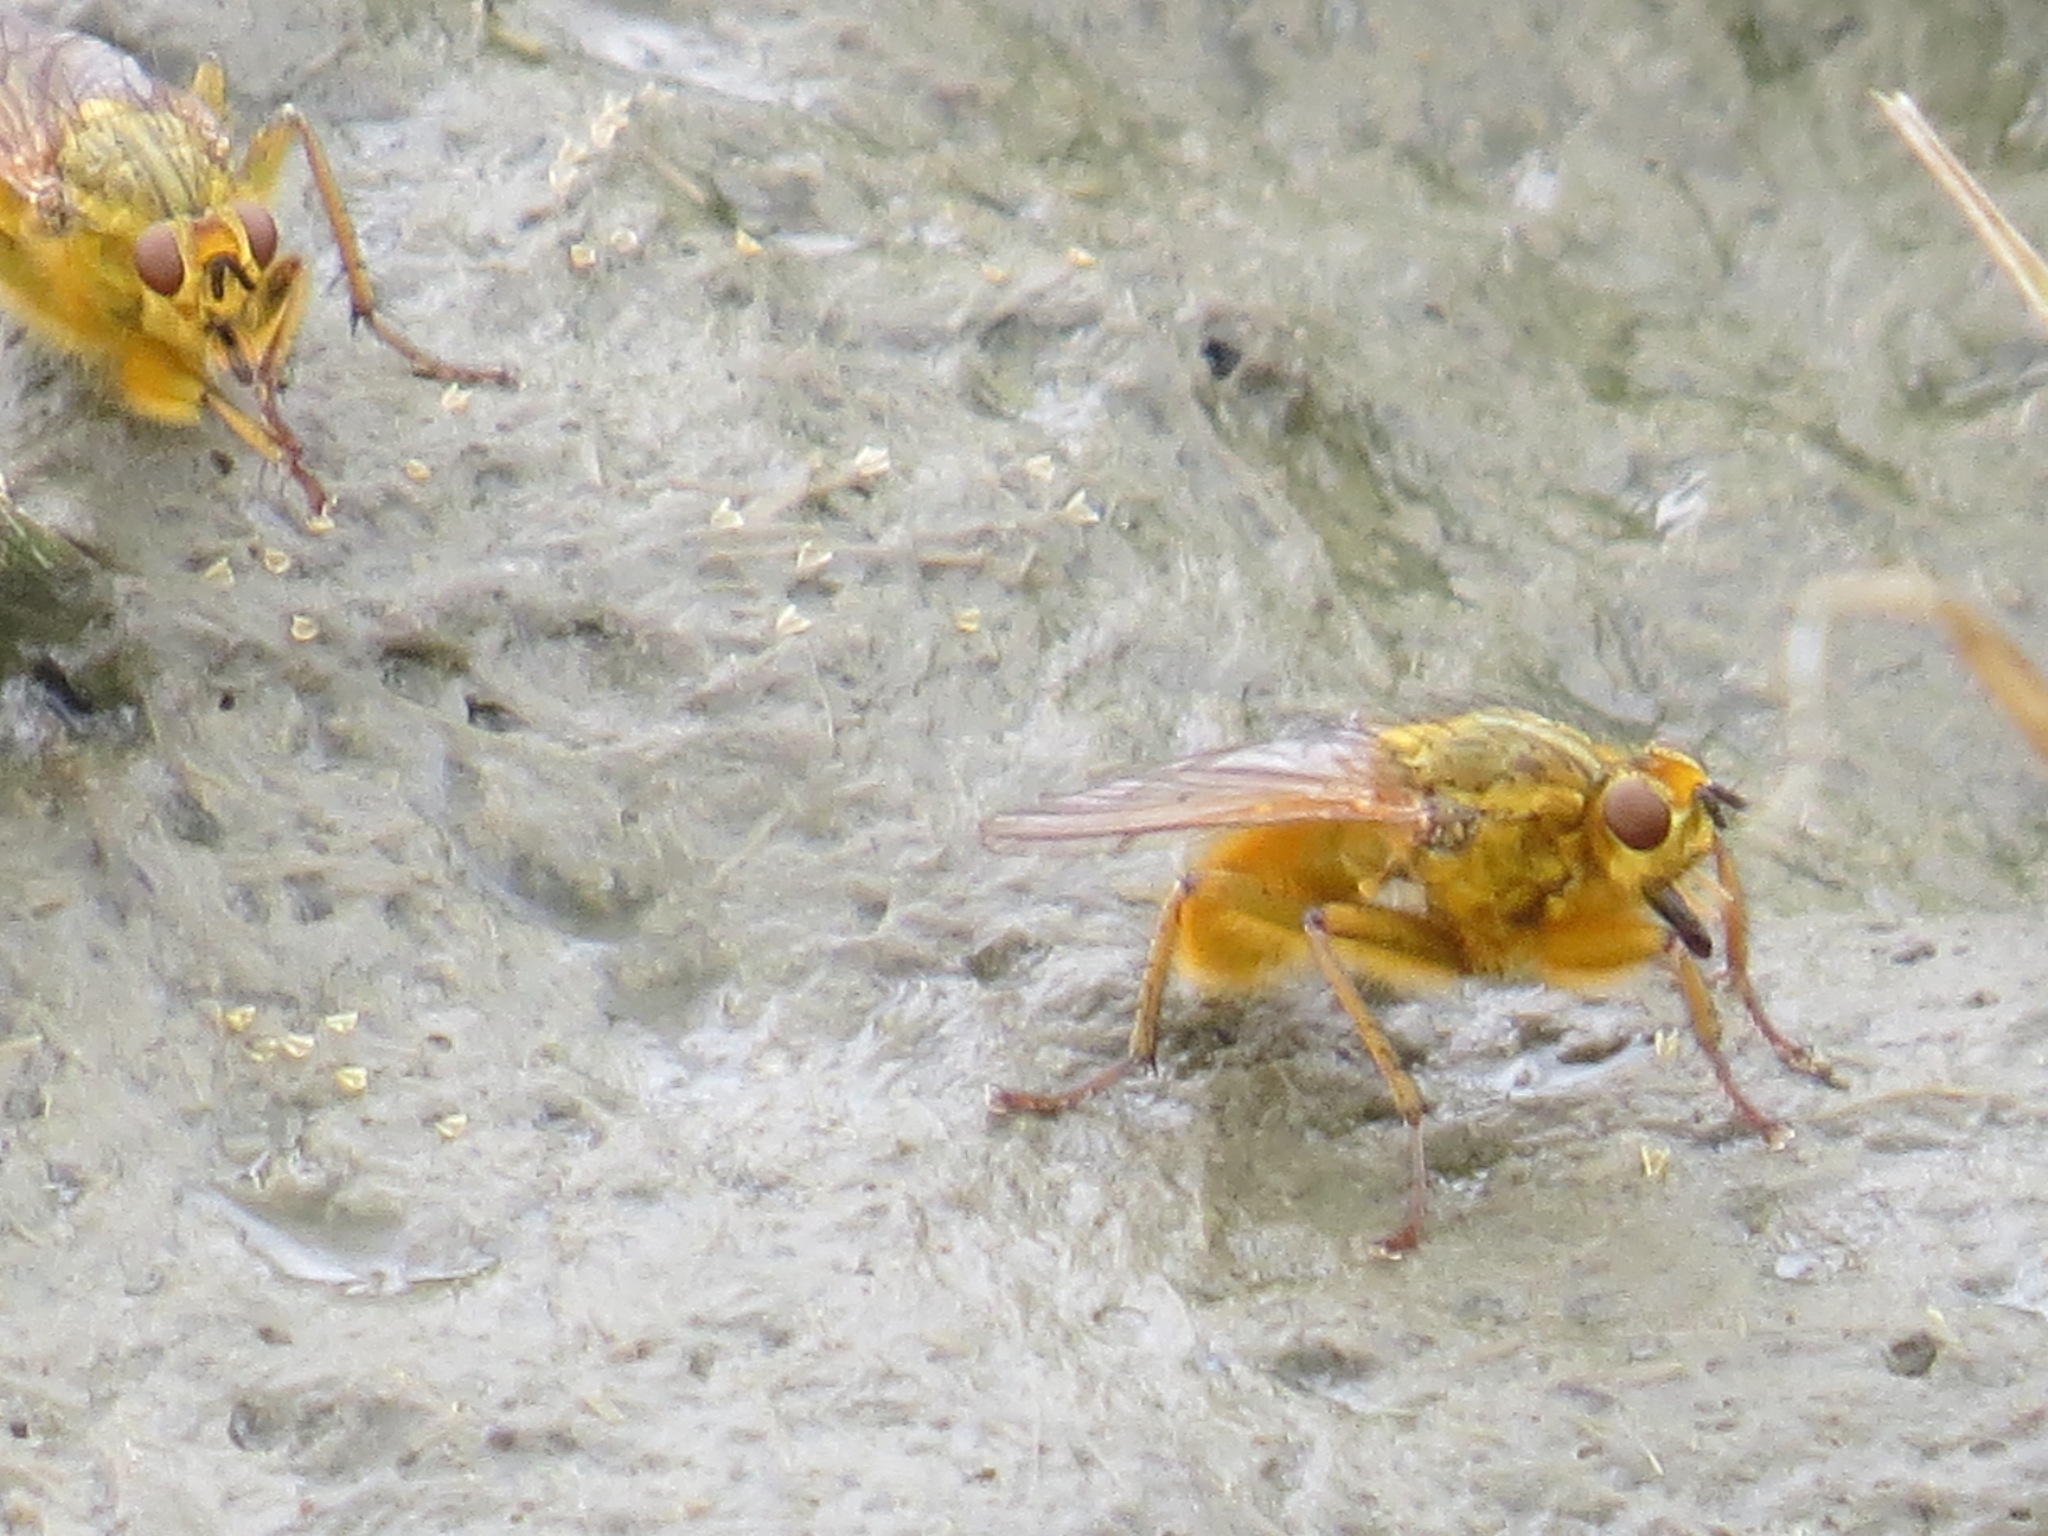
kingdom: Animalia
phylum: Arthropoda
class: Insecta
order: Diptera
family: Scathophagidae
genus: Scathophaga
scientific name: Scathophaga stercoraria
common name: Yellow dung fly
